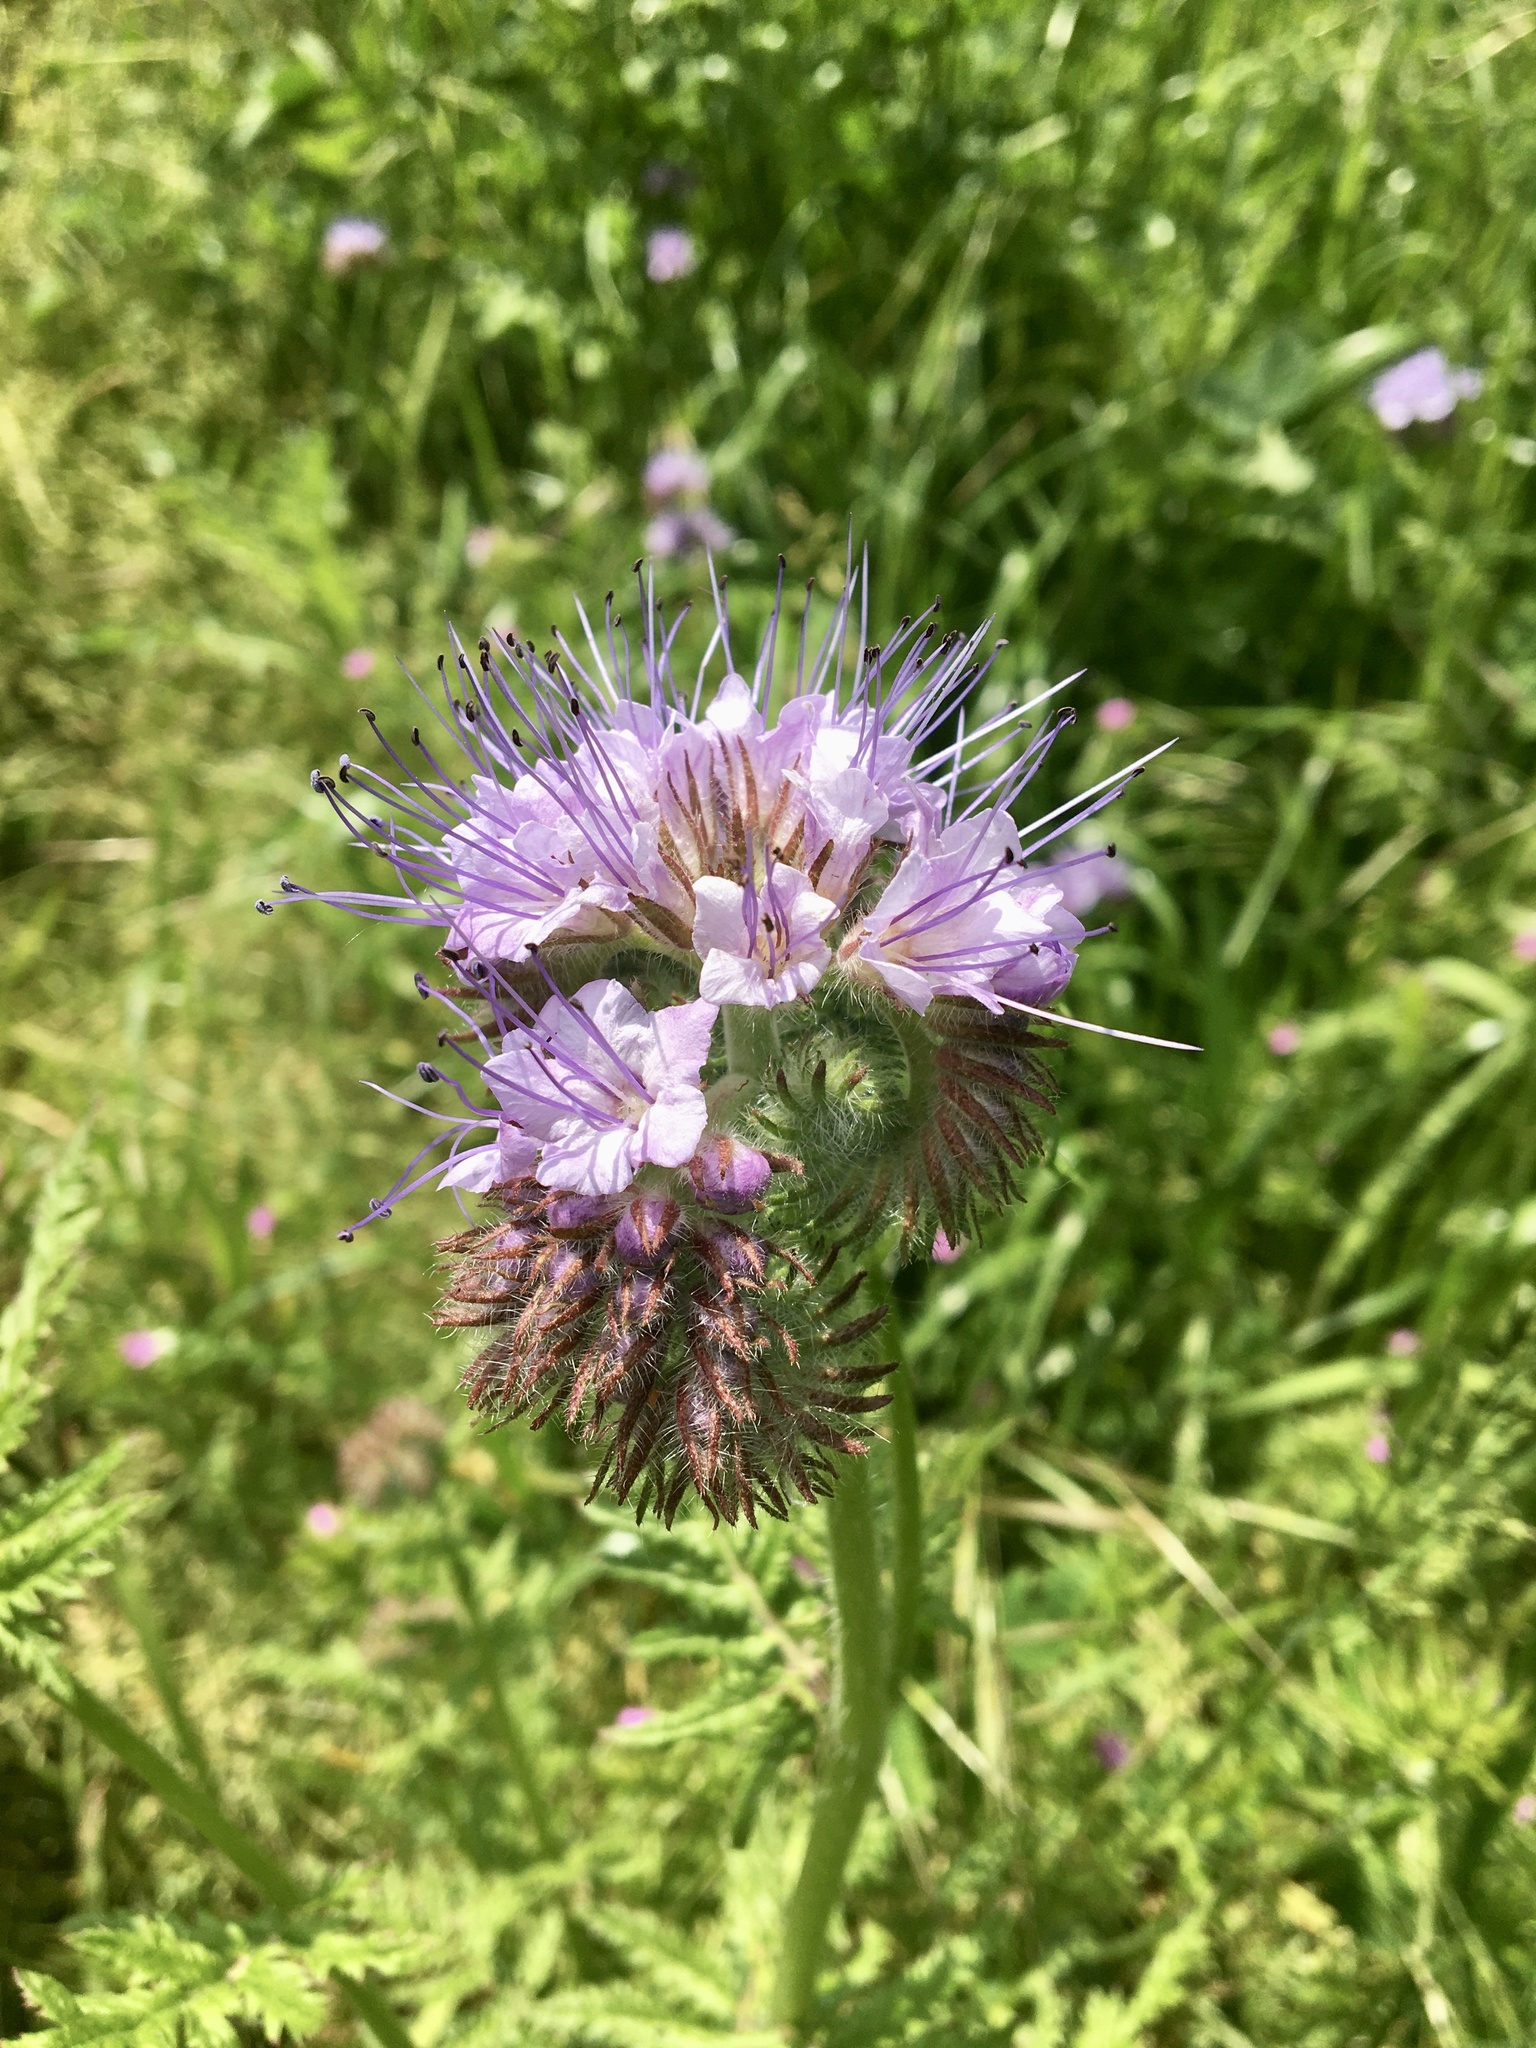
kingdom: Plantae
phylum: Tracheophyta
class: Magnoliopsida
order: Boraginales
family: Hydrophyllaceae
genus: Phacelia
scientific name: Phacelia tanacetifolia
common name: Phacelia
